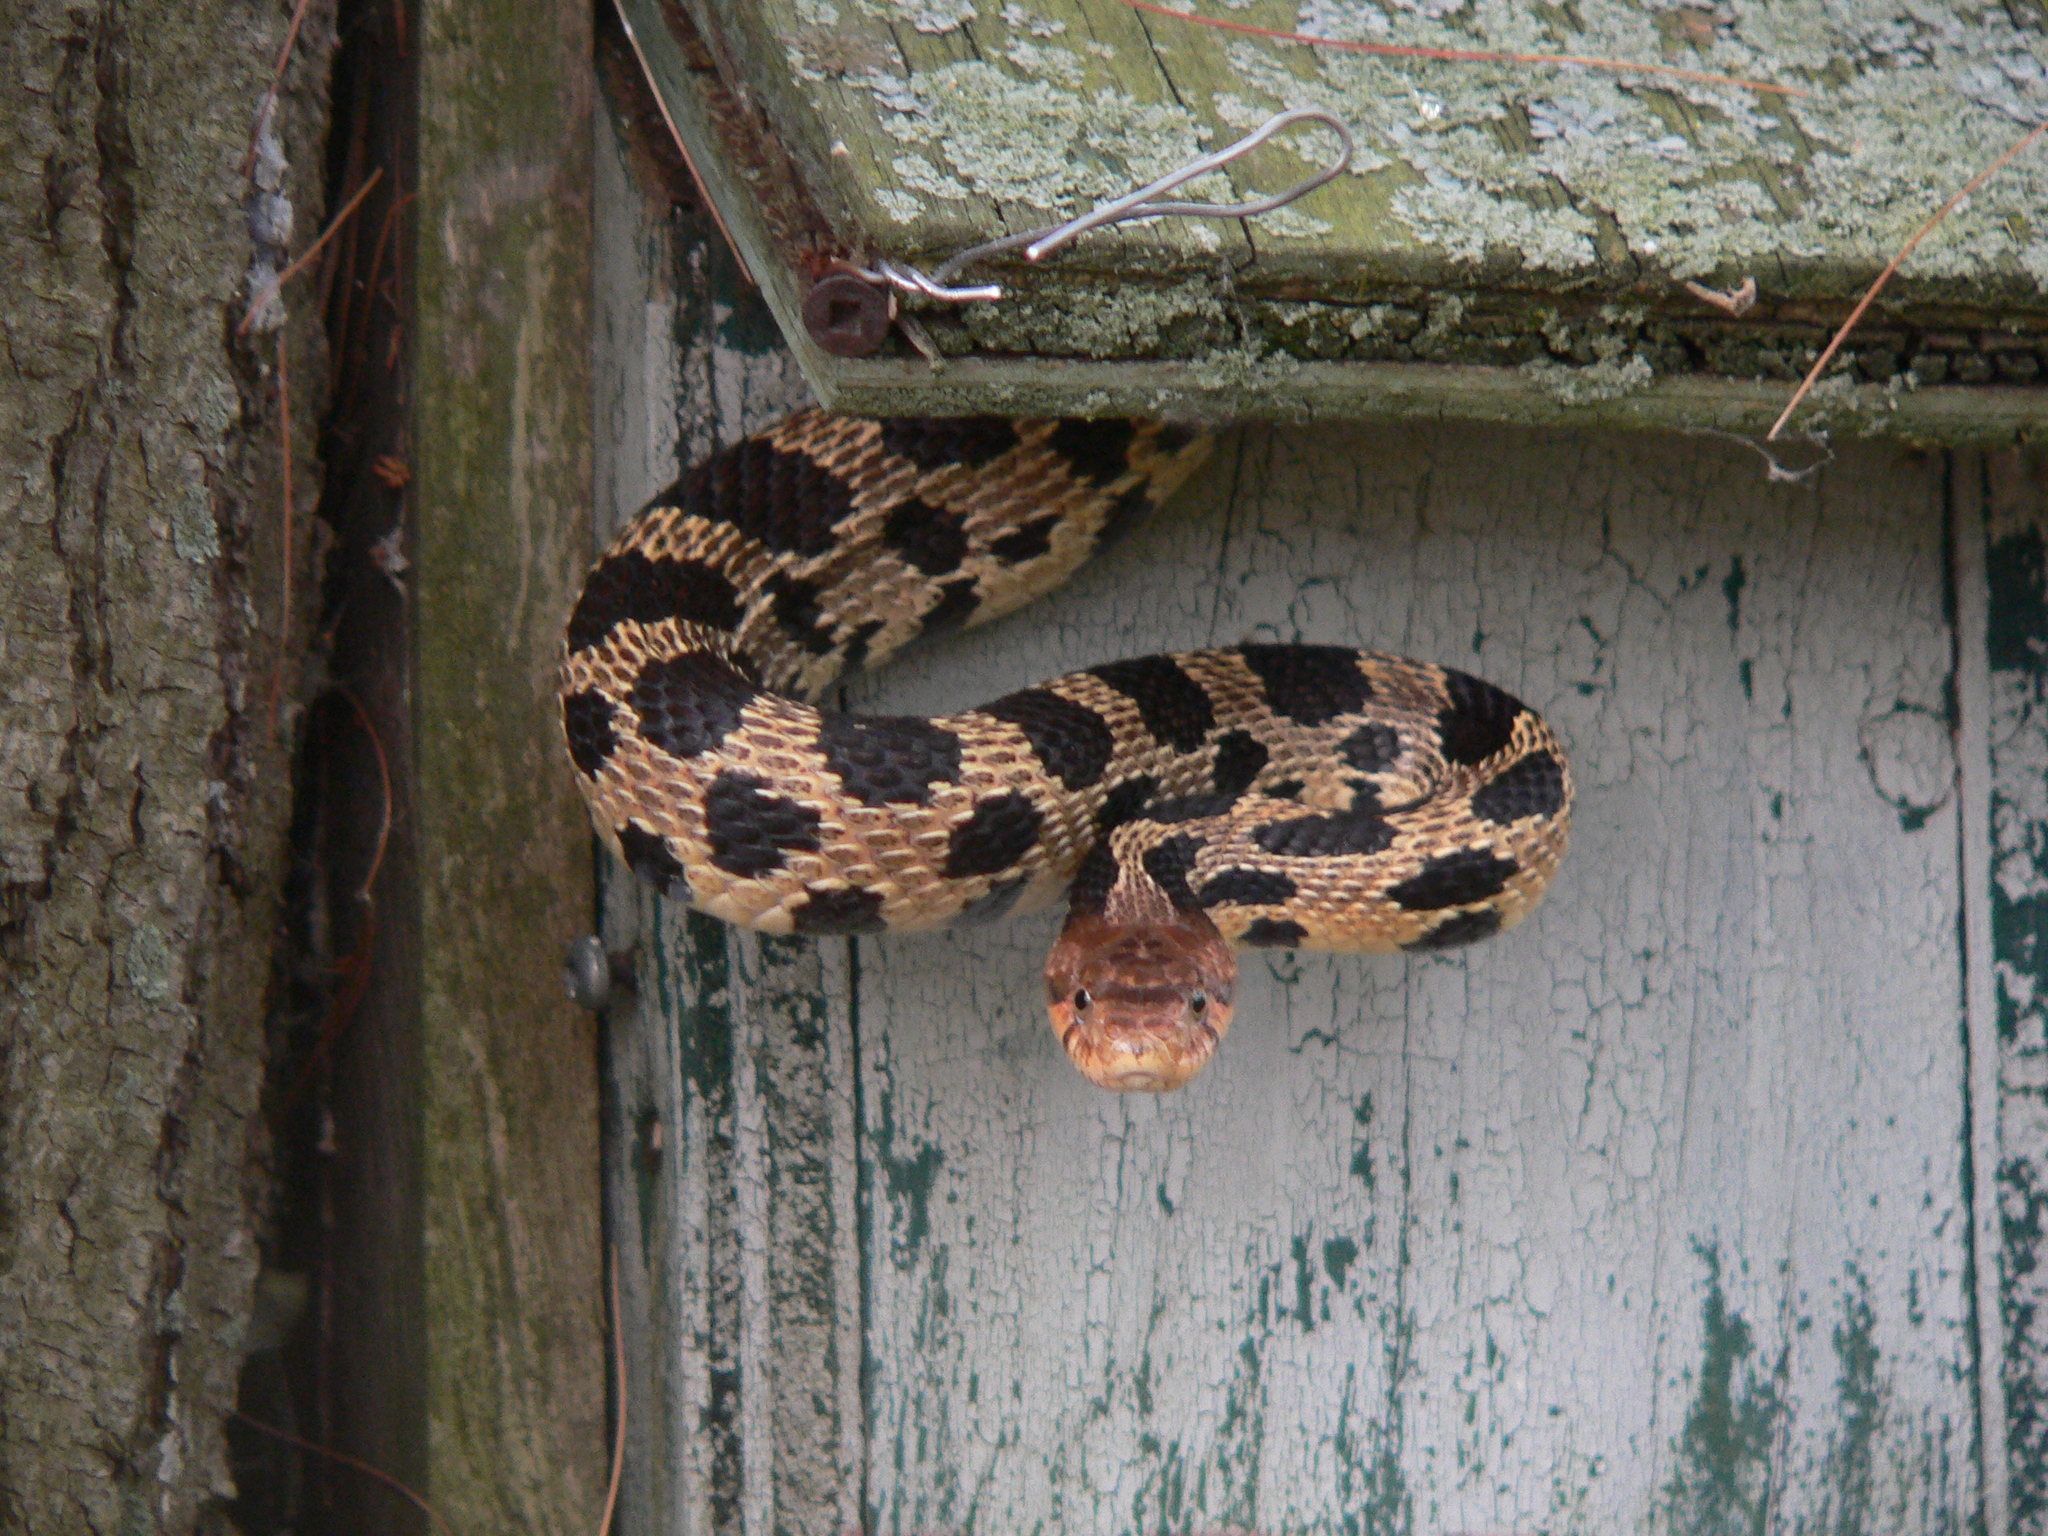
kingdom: Animalia
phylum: Chordata
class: Squamata
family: Colubridae
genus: Pantherophis
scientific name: Pantherophis vulpinus
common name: Eastern fox snake
